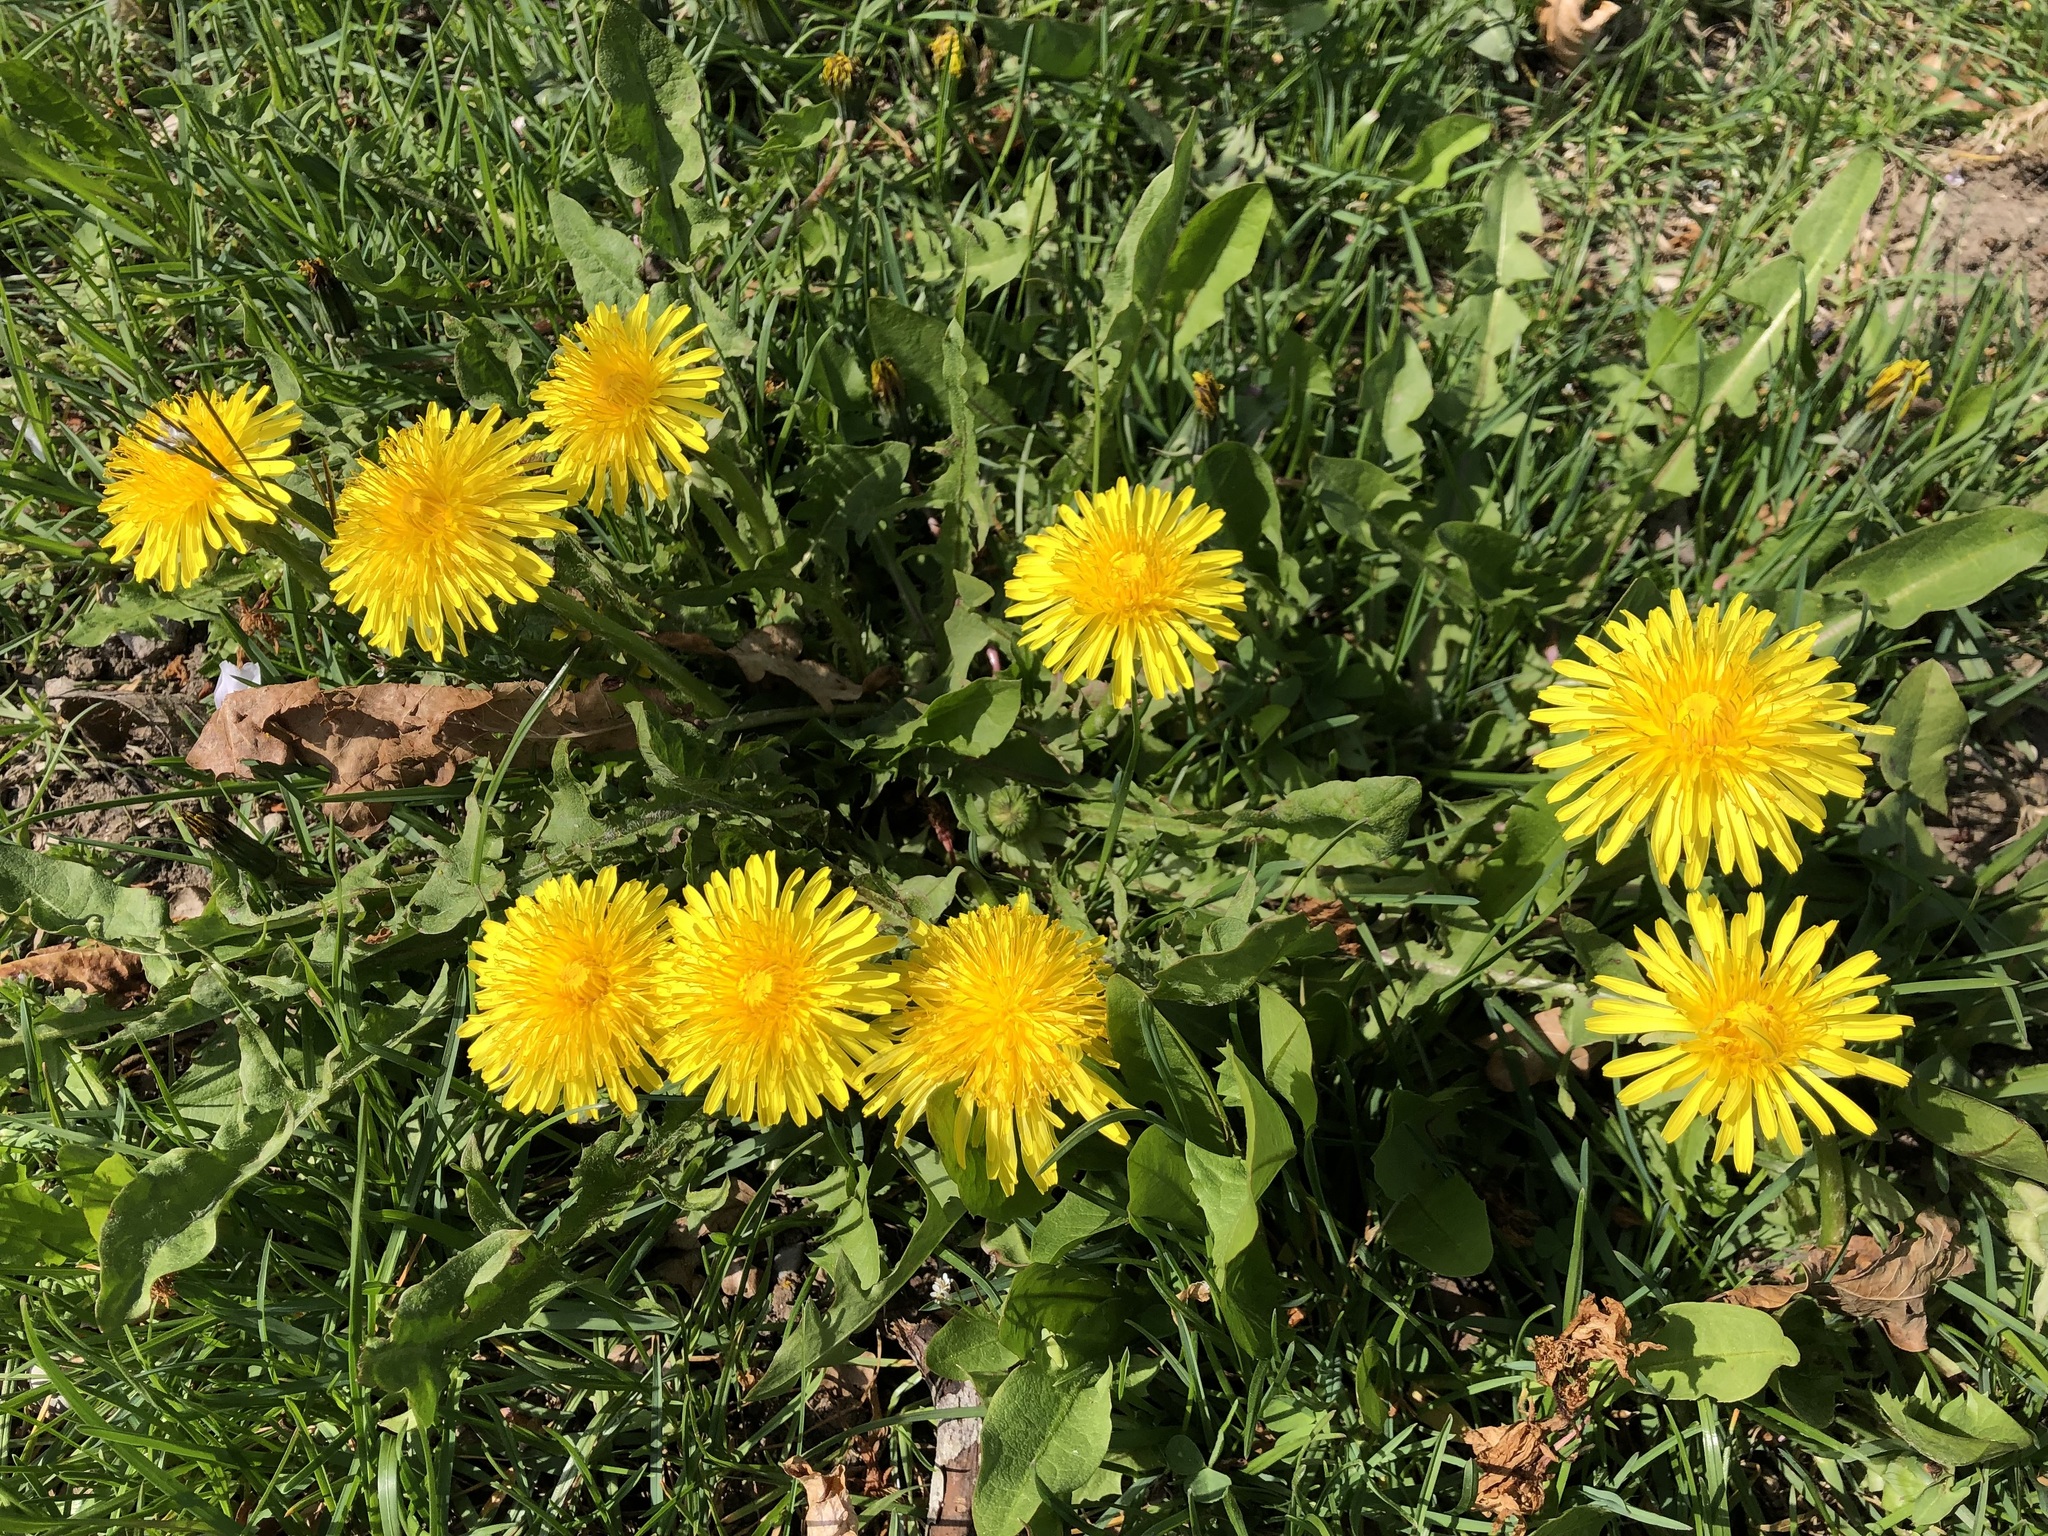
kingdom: Plantae
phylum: Tracheophyta
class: Magnoliopsida
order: Asterales
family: Asteraceae
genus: Taraxacum
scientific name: Taraxacum officinale
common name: Common dandelion
